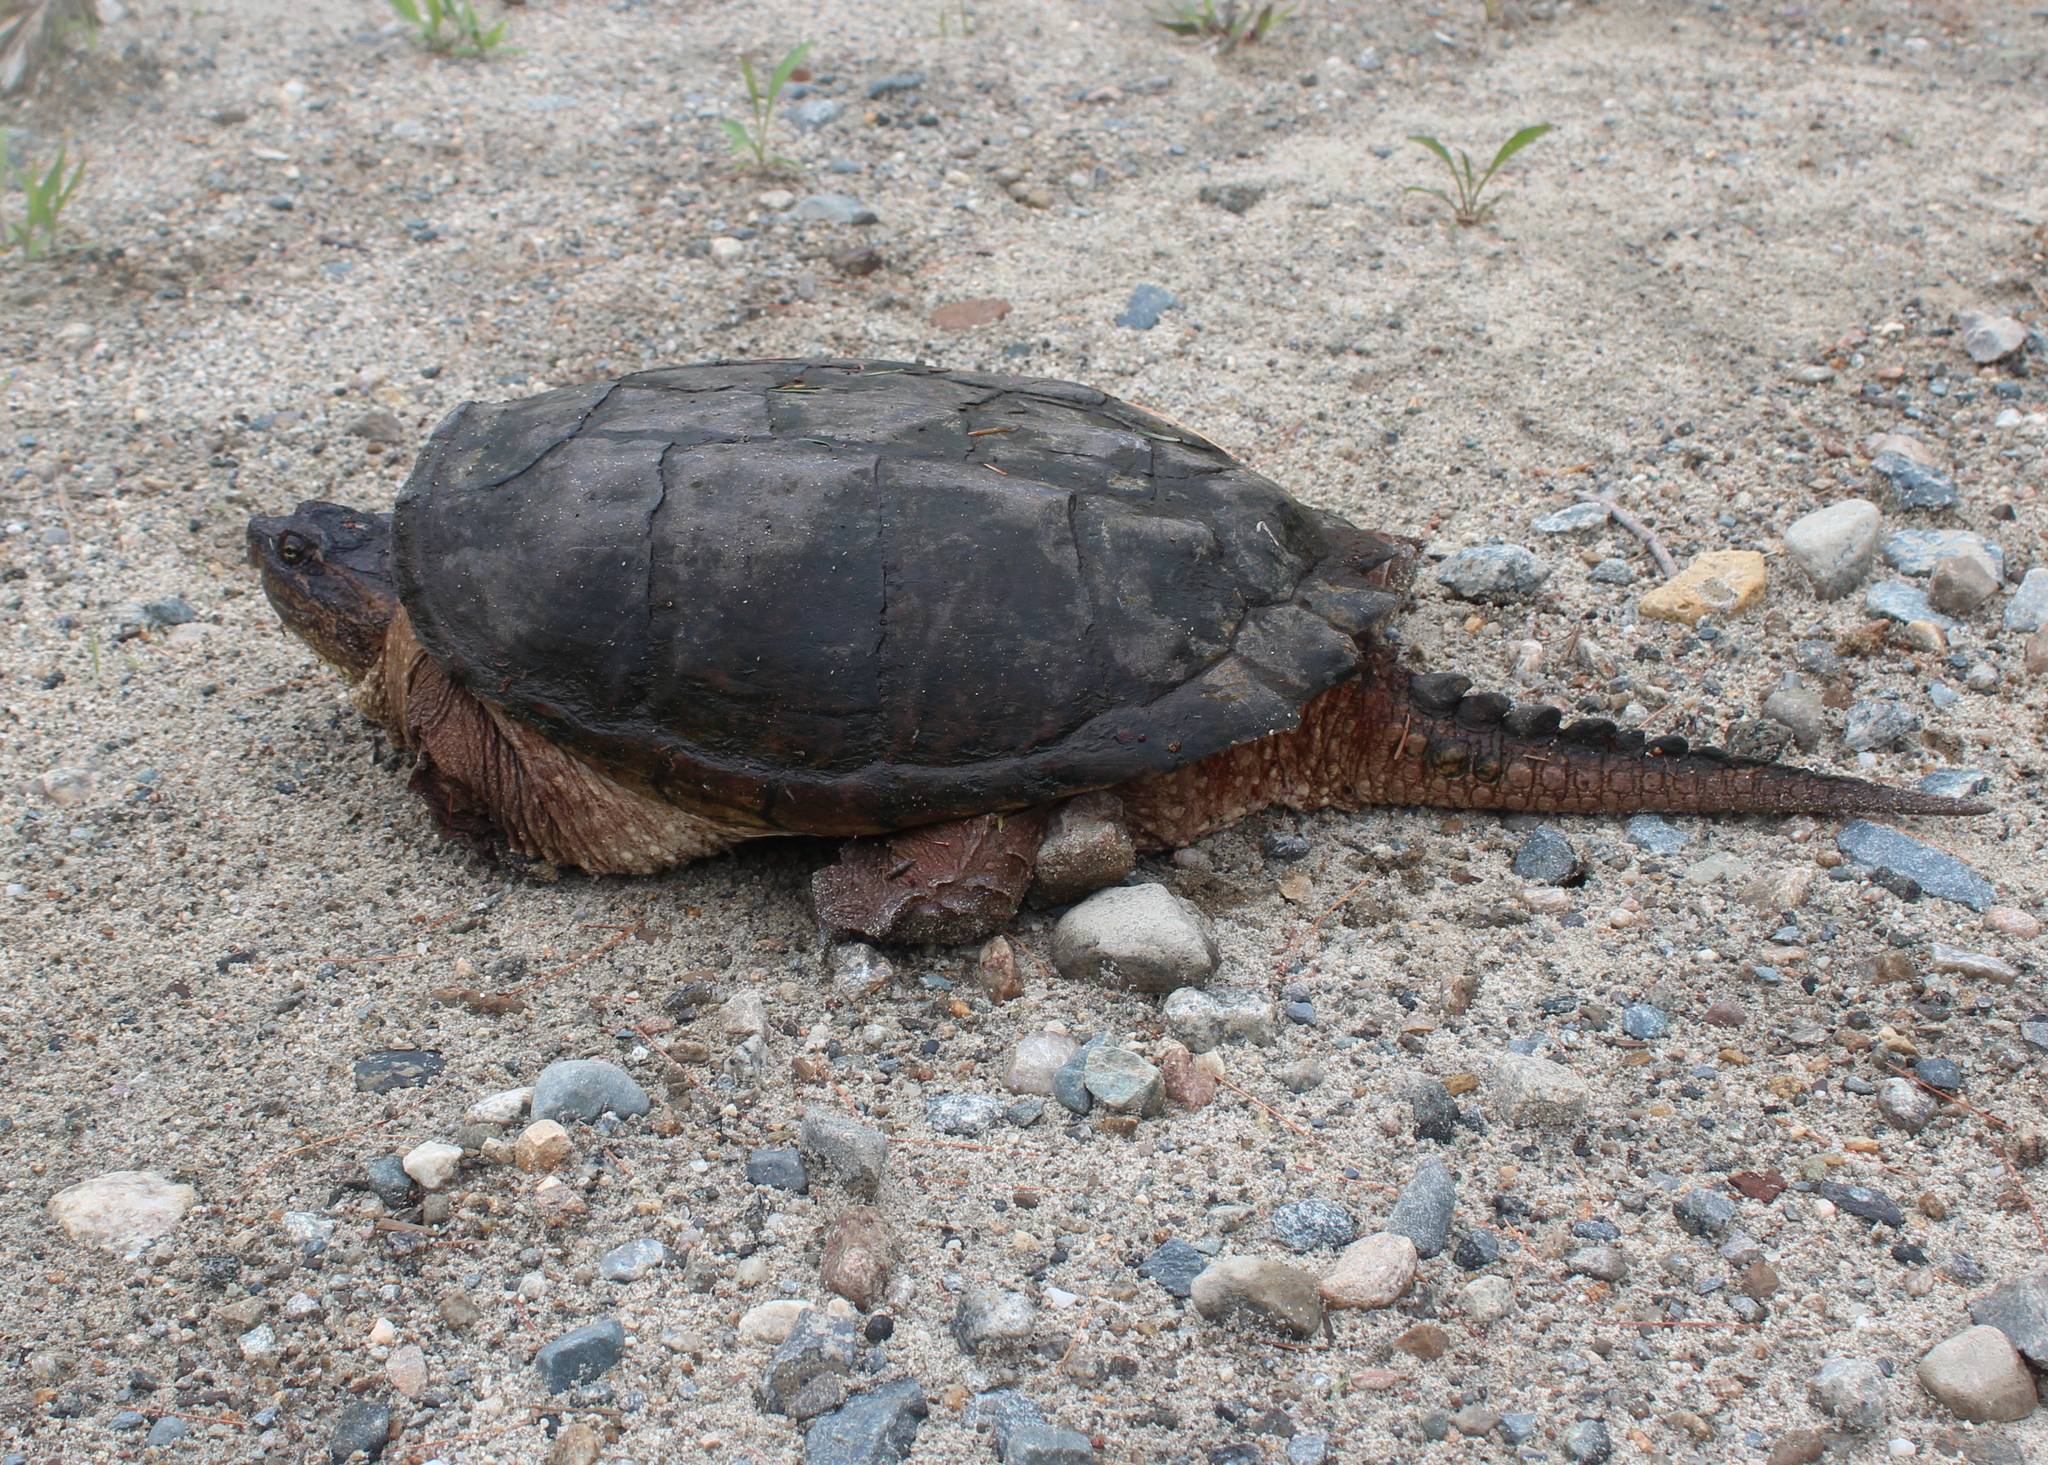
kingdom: Animalia
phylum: Chordata
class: Testudines
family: Chelydridae
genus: Chelydra
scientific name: Chelydra serpentina
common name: Common snapping turtle
